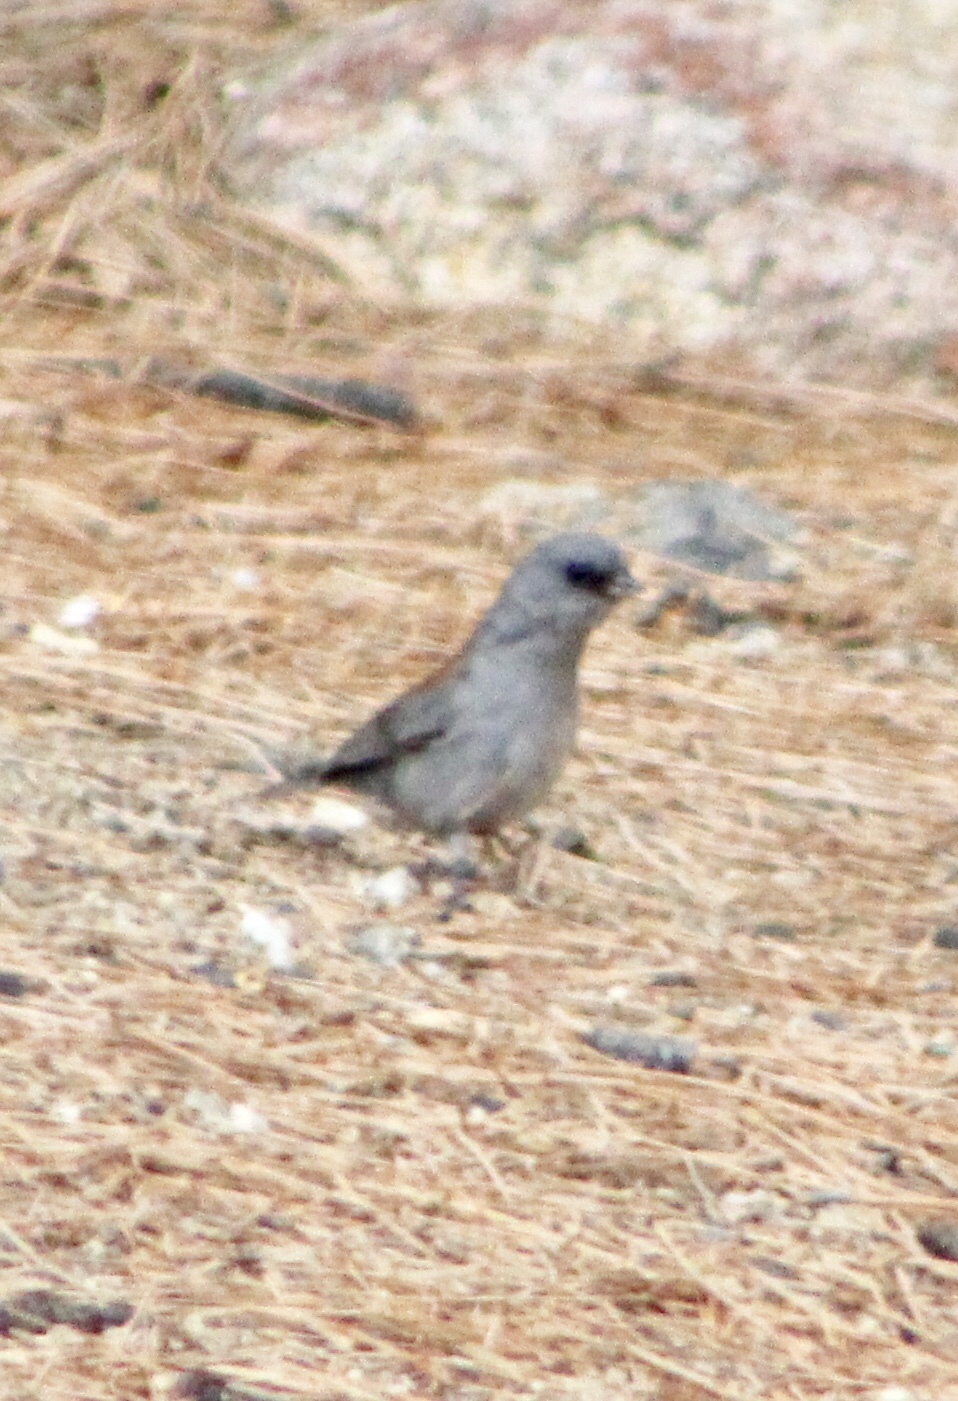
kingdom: Animalia
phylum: Chordata
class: Aves
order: Passeriformes
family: Passerellidae
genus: Junco
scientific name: Junco hyemalis
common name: Dark-eyed junco
